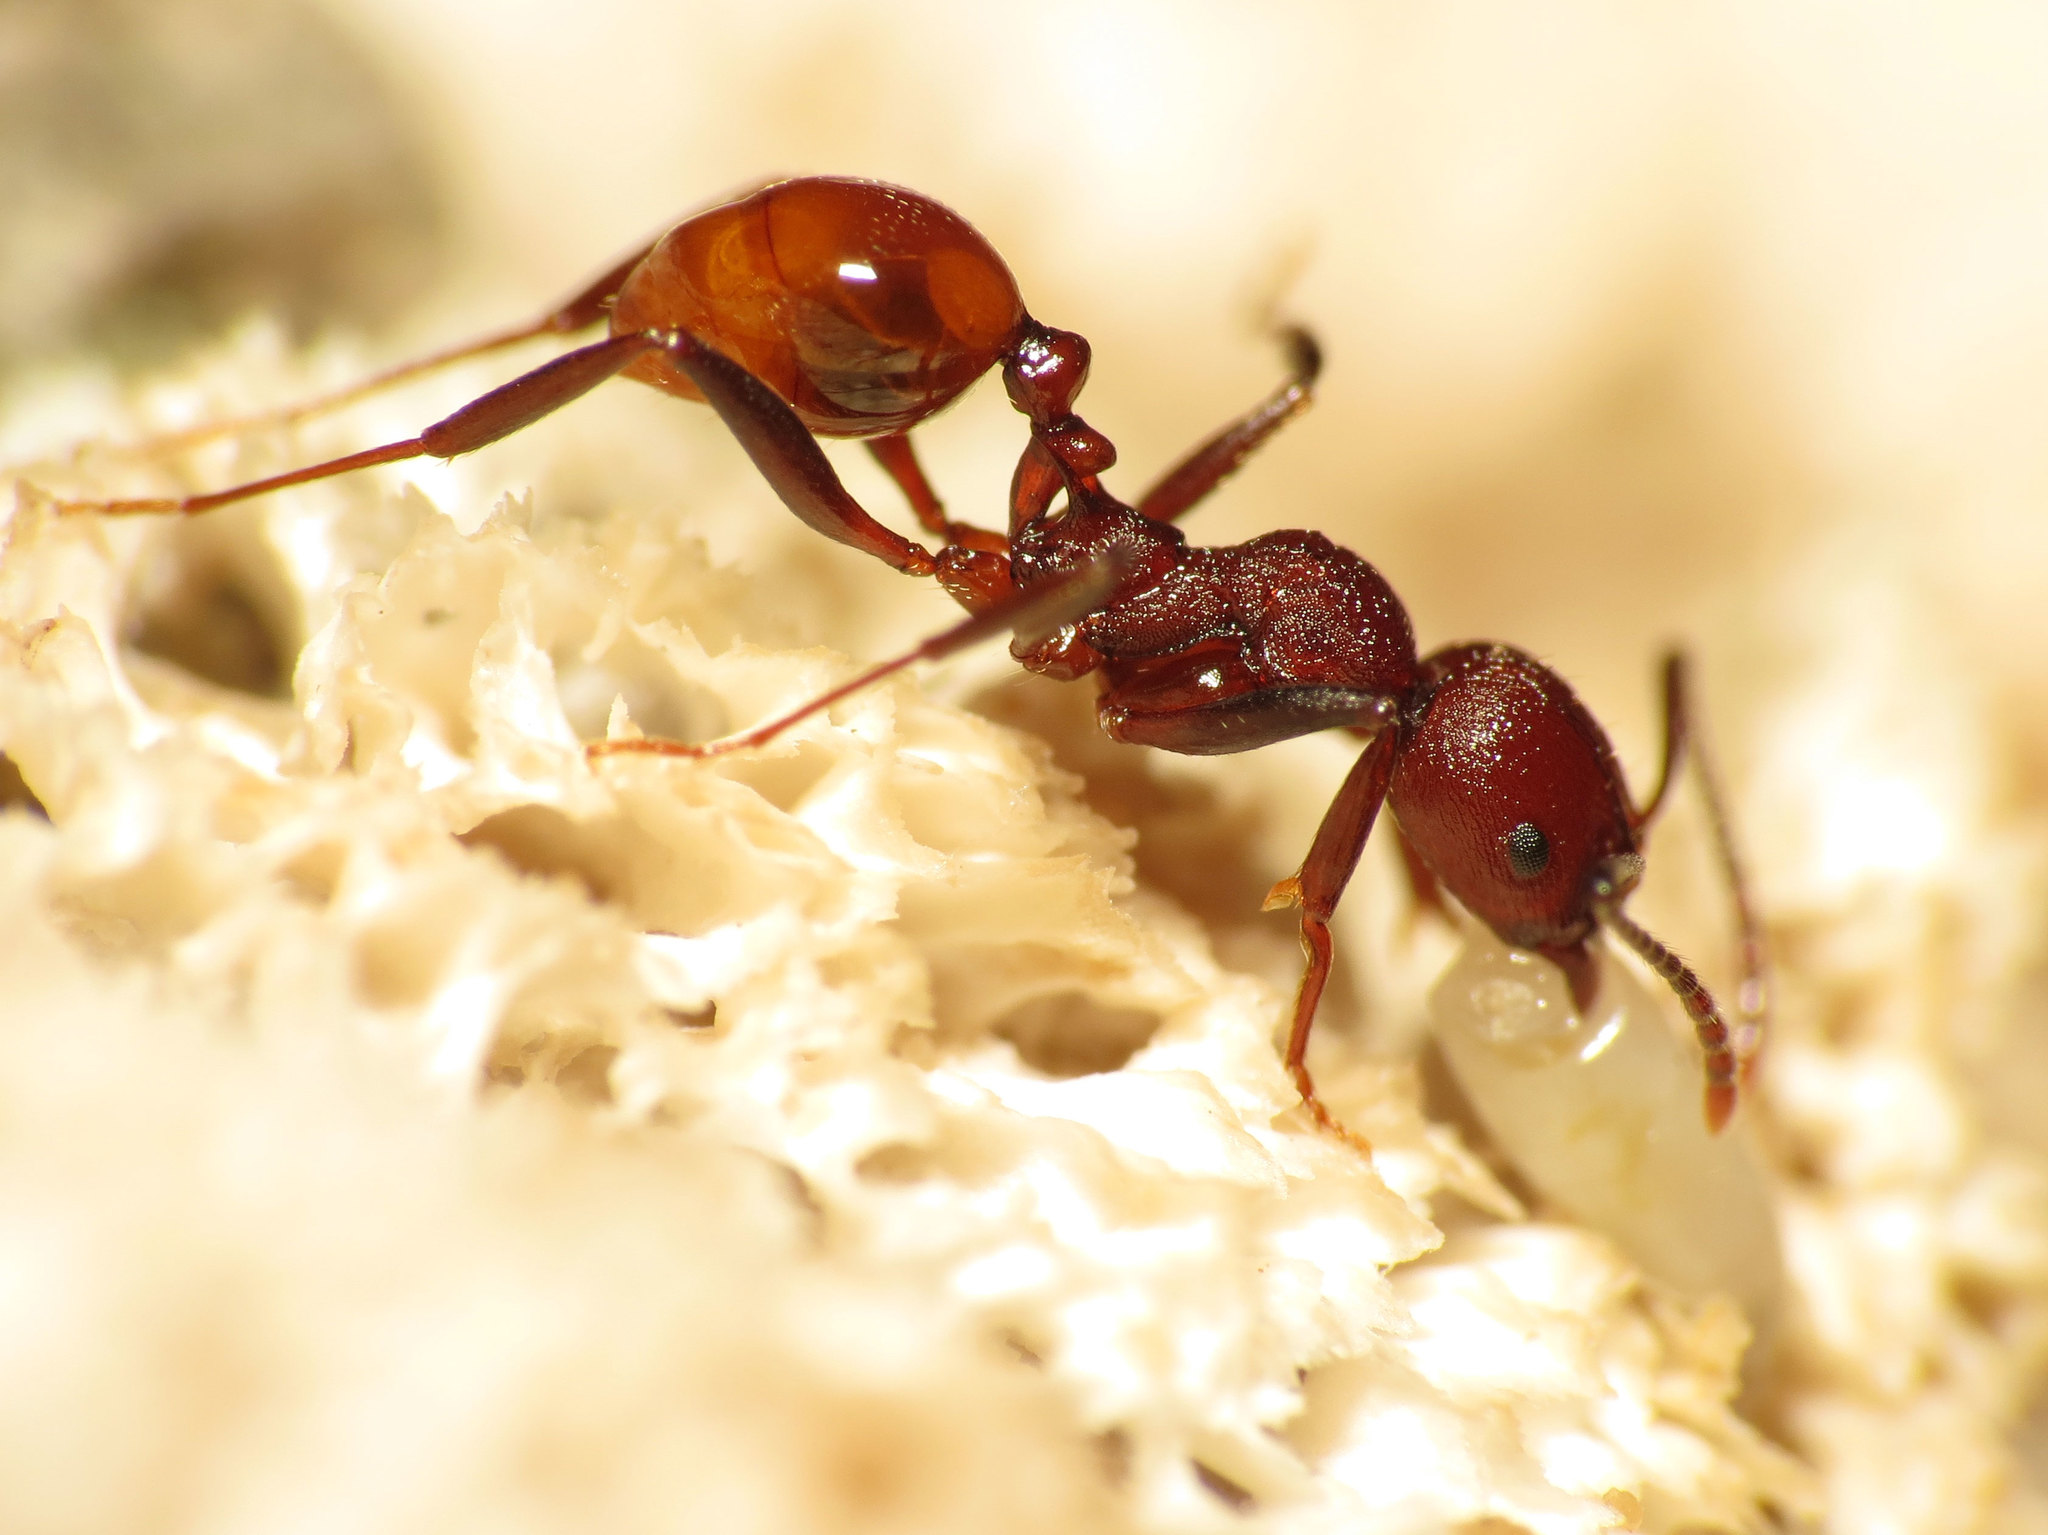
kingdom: Animalia
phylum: Arthropoda
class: Insecta
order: Hymenoptera
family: Formicidae
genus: Aphaenogaster
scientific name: Aphaenogaster tennesseensis
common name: Tennessee thread-waisted ant
